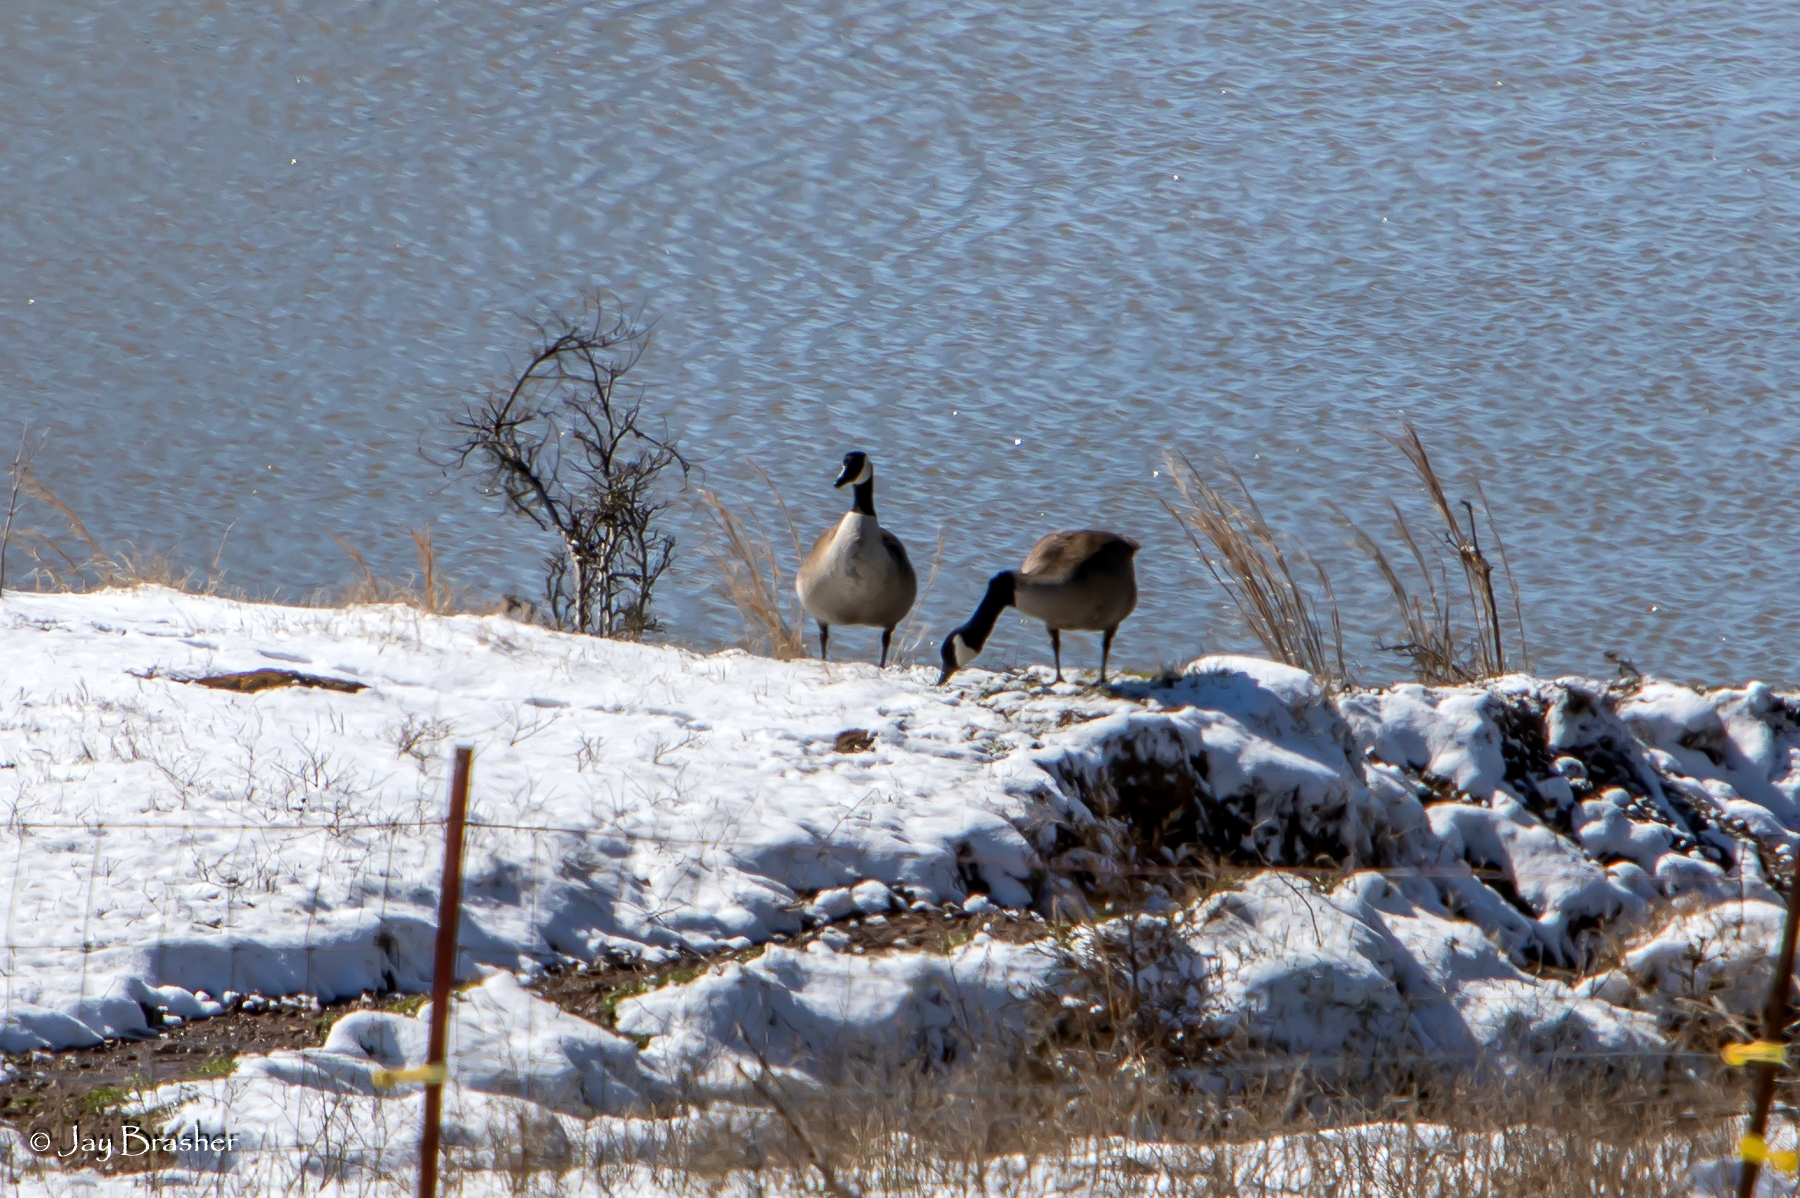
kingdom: Animalia
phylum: Chordata
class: Aves
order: Anseriformes
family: Anatidae
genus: Branta
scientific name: Branta canadensis
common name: Canada goose
